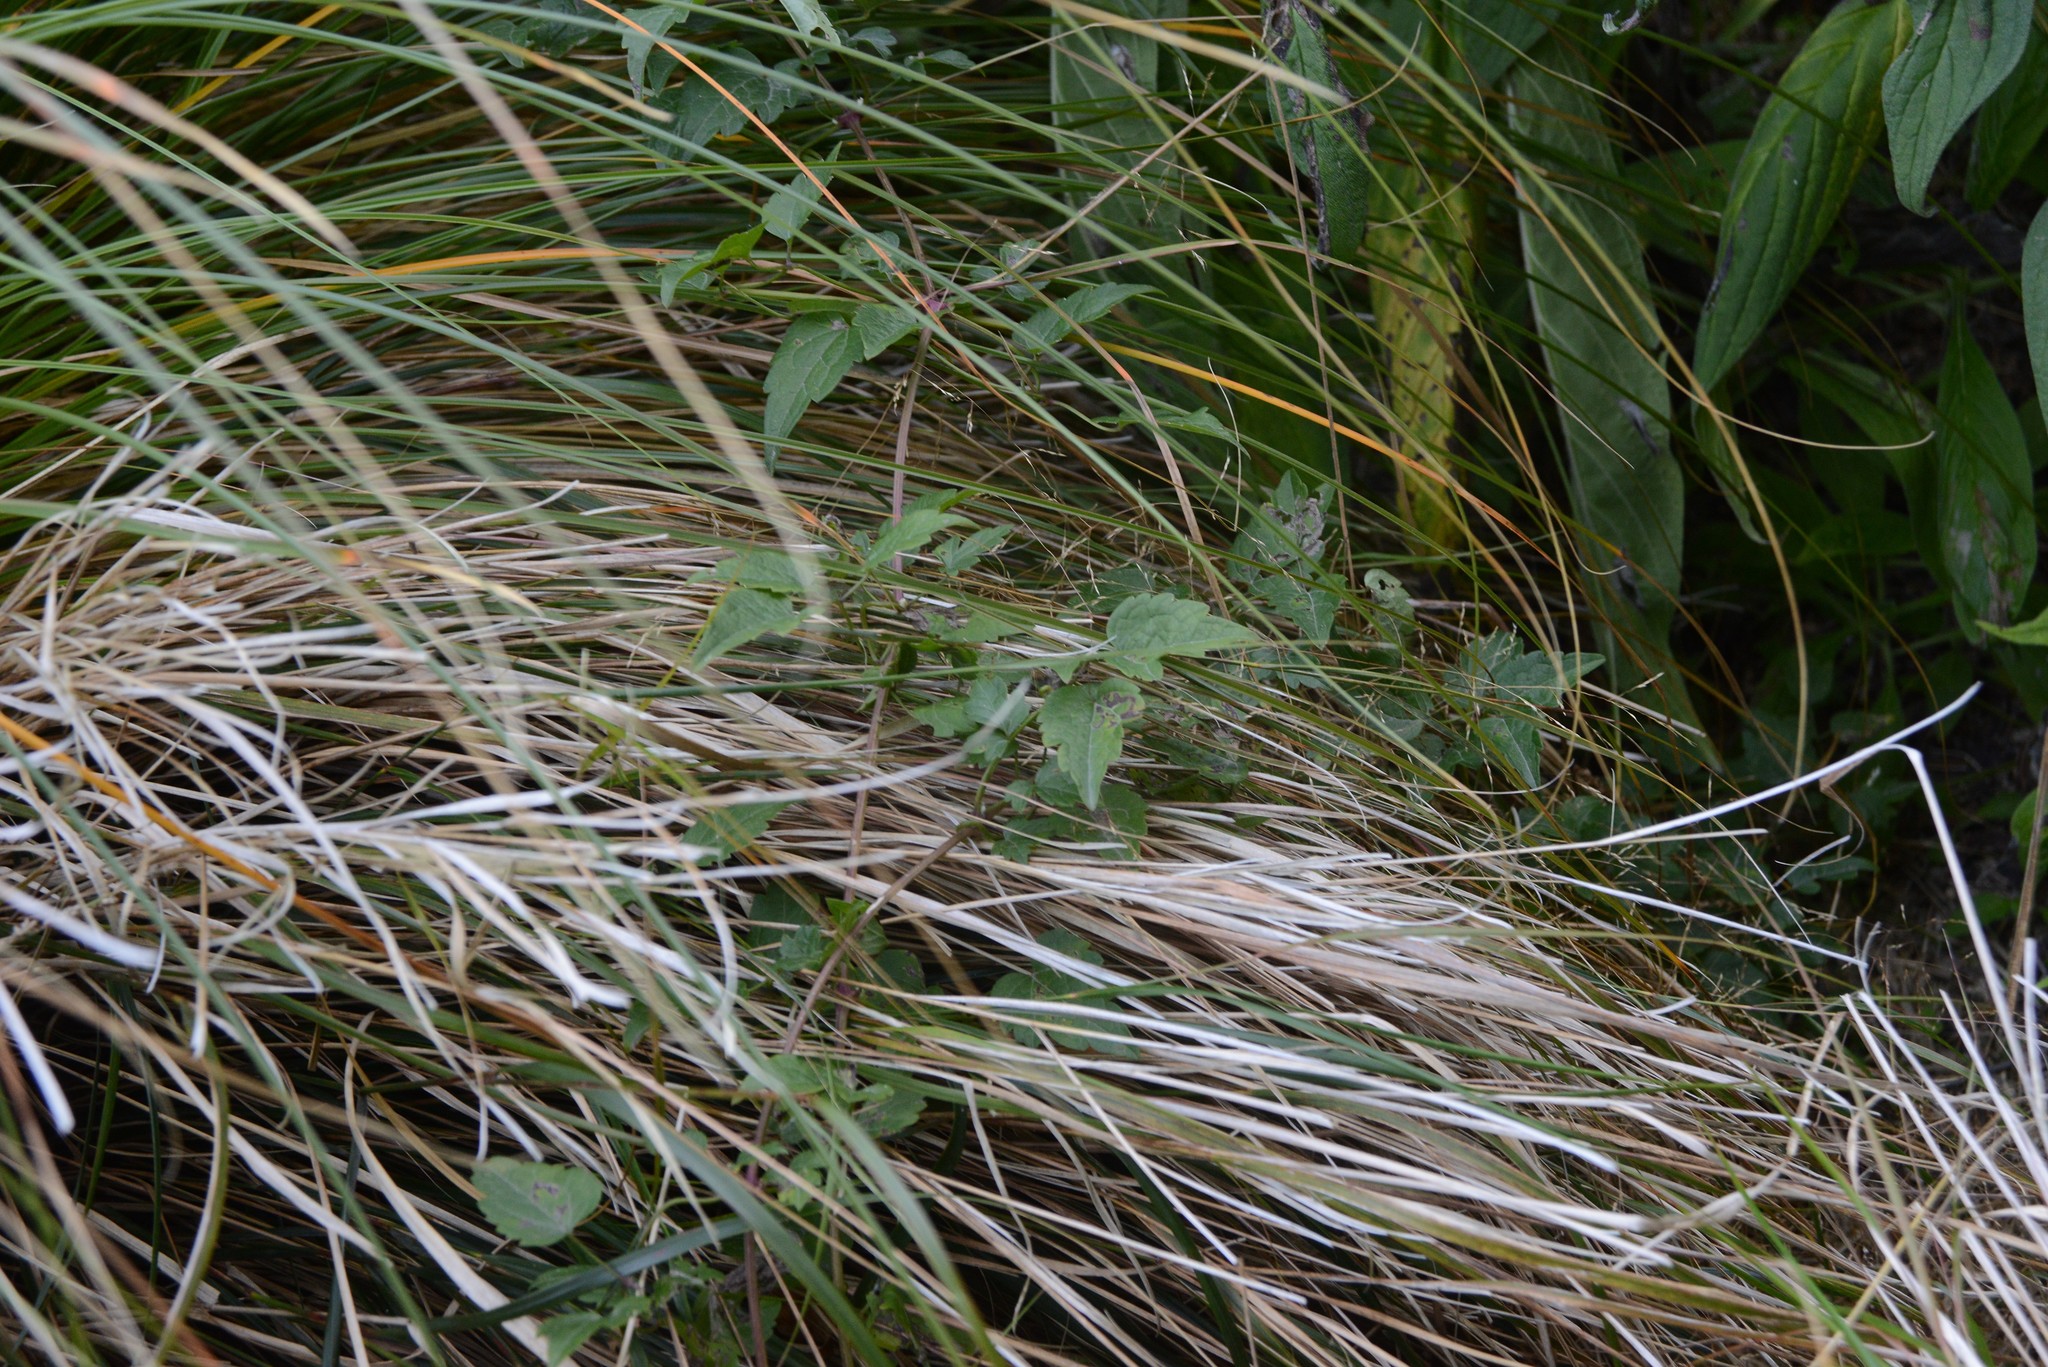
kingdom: Plantae
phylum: Tracheophyta
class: Magnoliopsida
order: Ranunculales
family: Ranunculaceae
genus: Clematis
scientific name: Clematis vitalba
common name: Evergreen clematis
